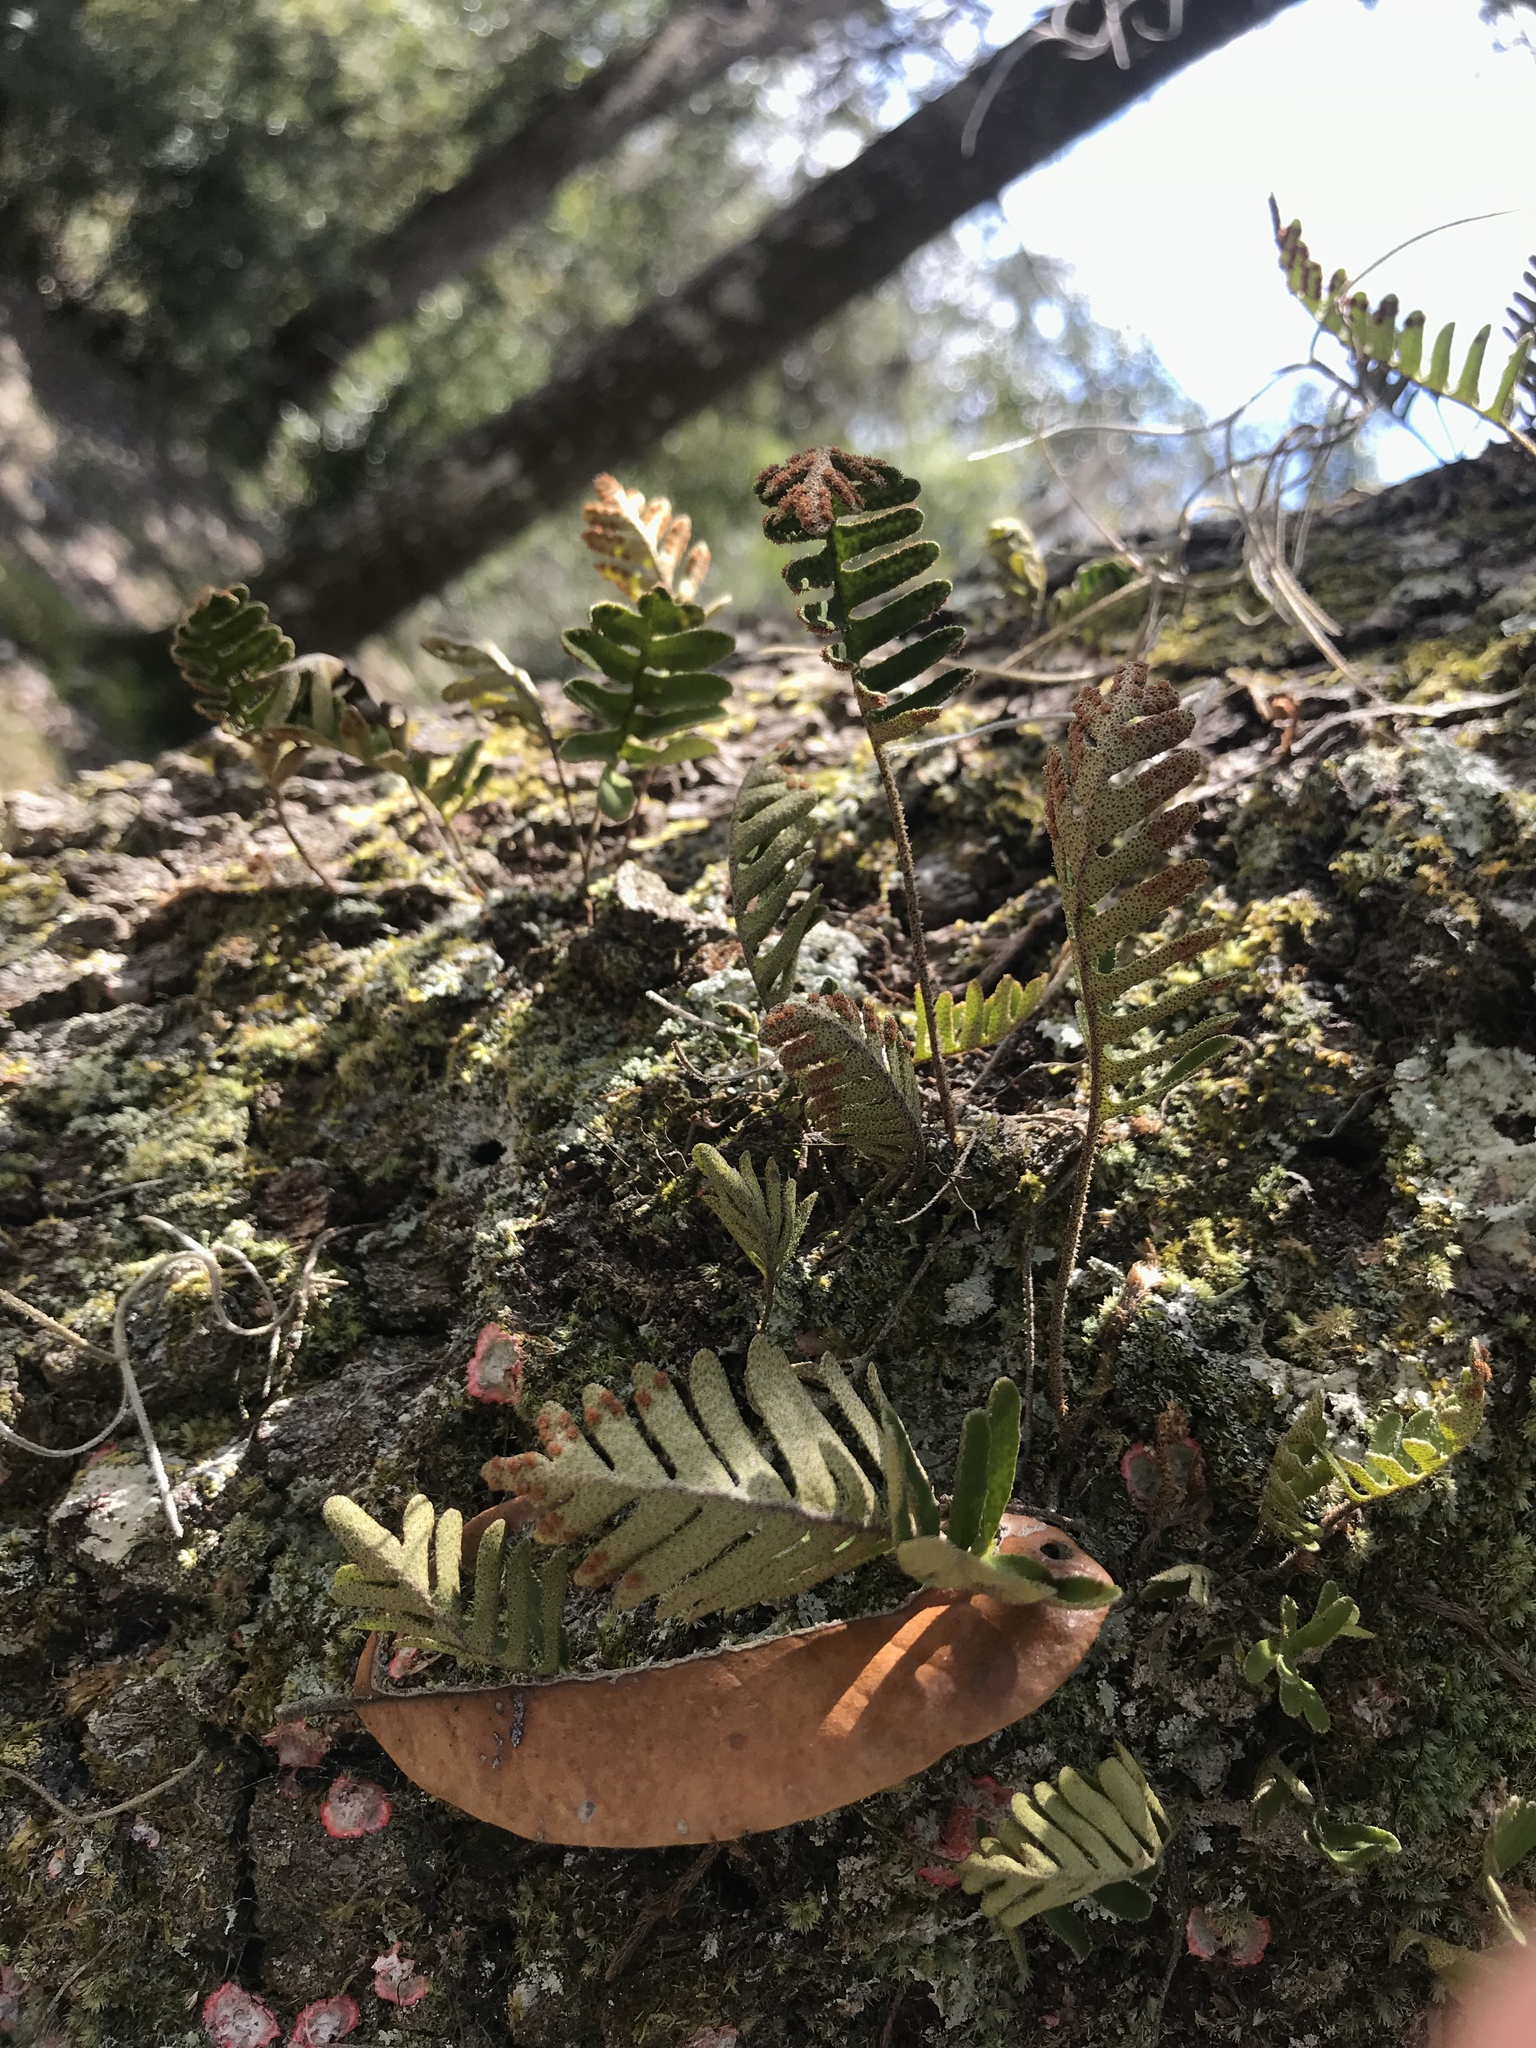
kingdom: Plantae
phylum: Tracheophyta
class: Polypodiopsida
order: Polypodiales
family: Polypodiaceae
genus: Pleopeltis
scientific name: Pleopeltis michauxiana
